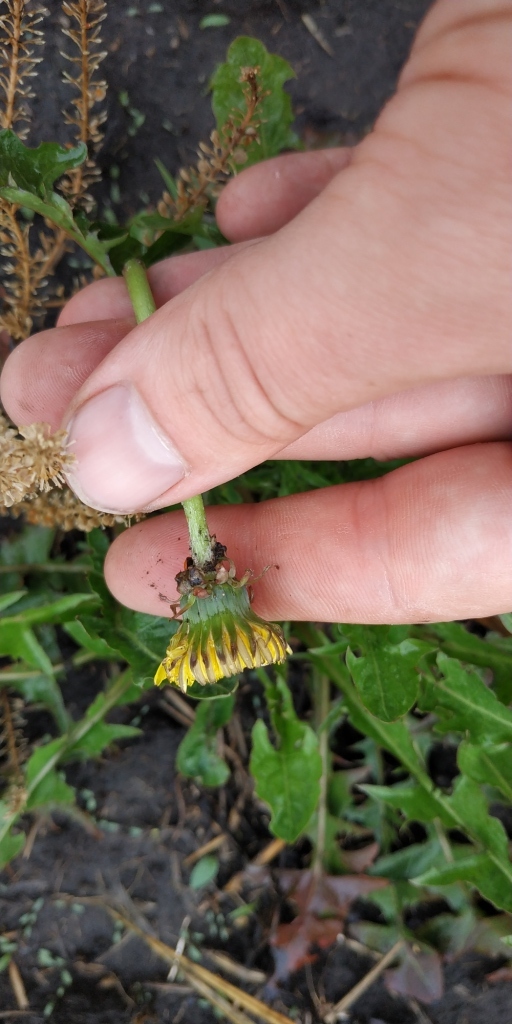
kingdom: Plantae
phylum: Tracheophyta
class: Magnoliopsida
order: Asterales
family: Asteraceae
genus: Taraxacum
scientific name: Taraxacum officinale
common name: Common dandelion
